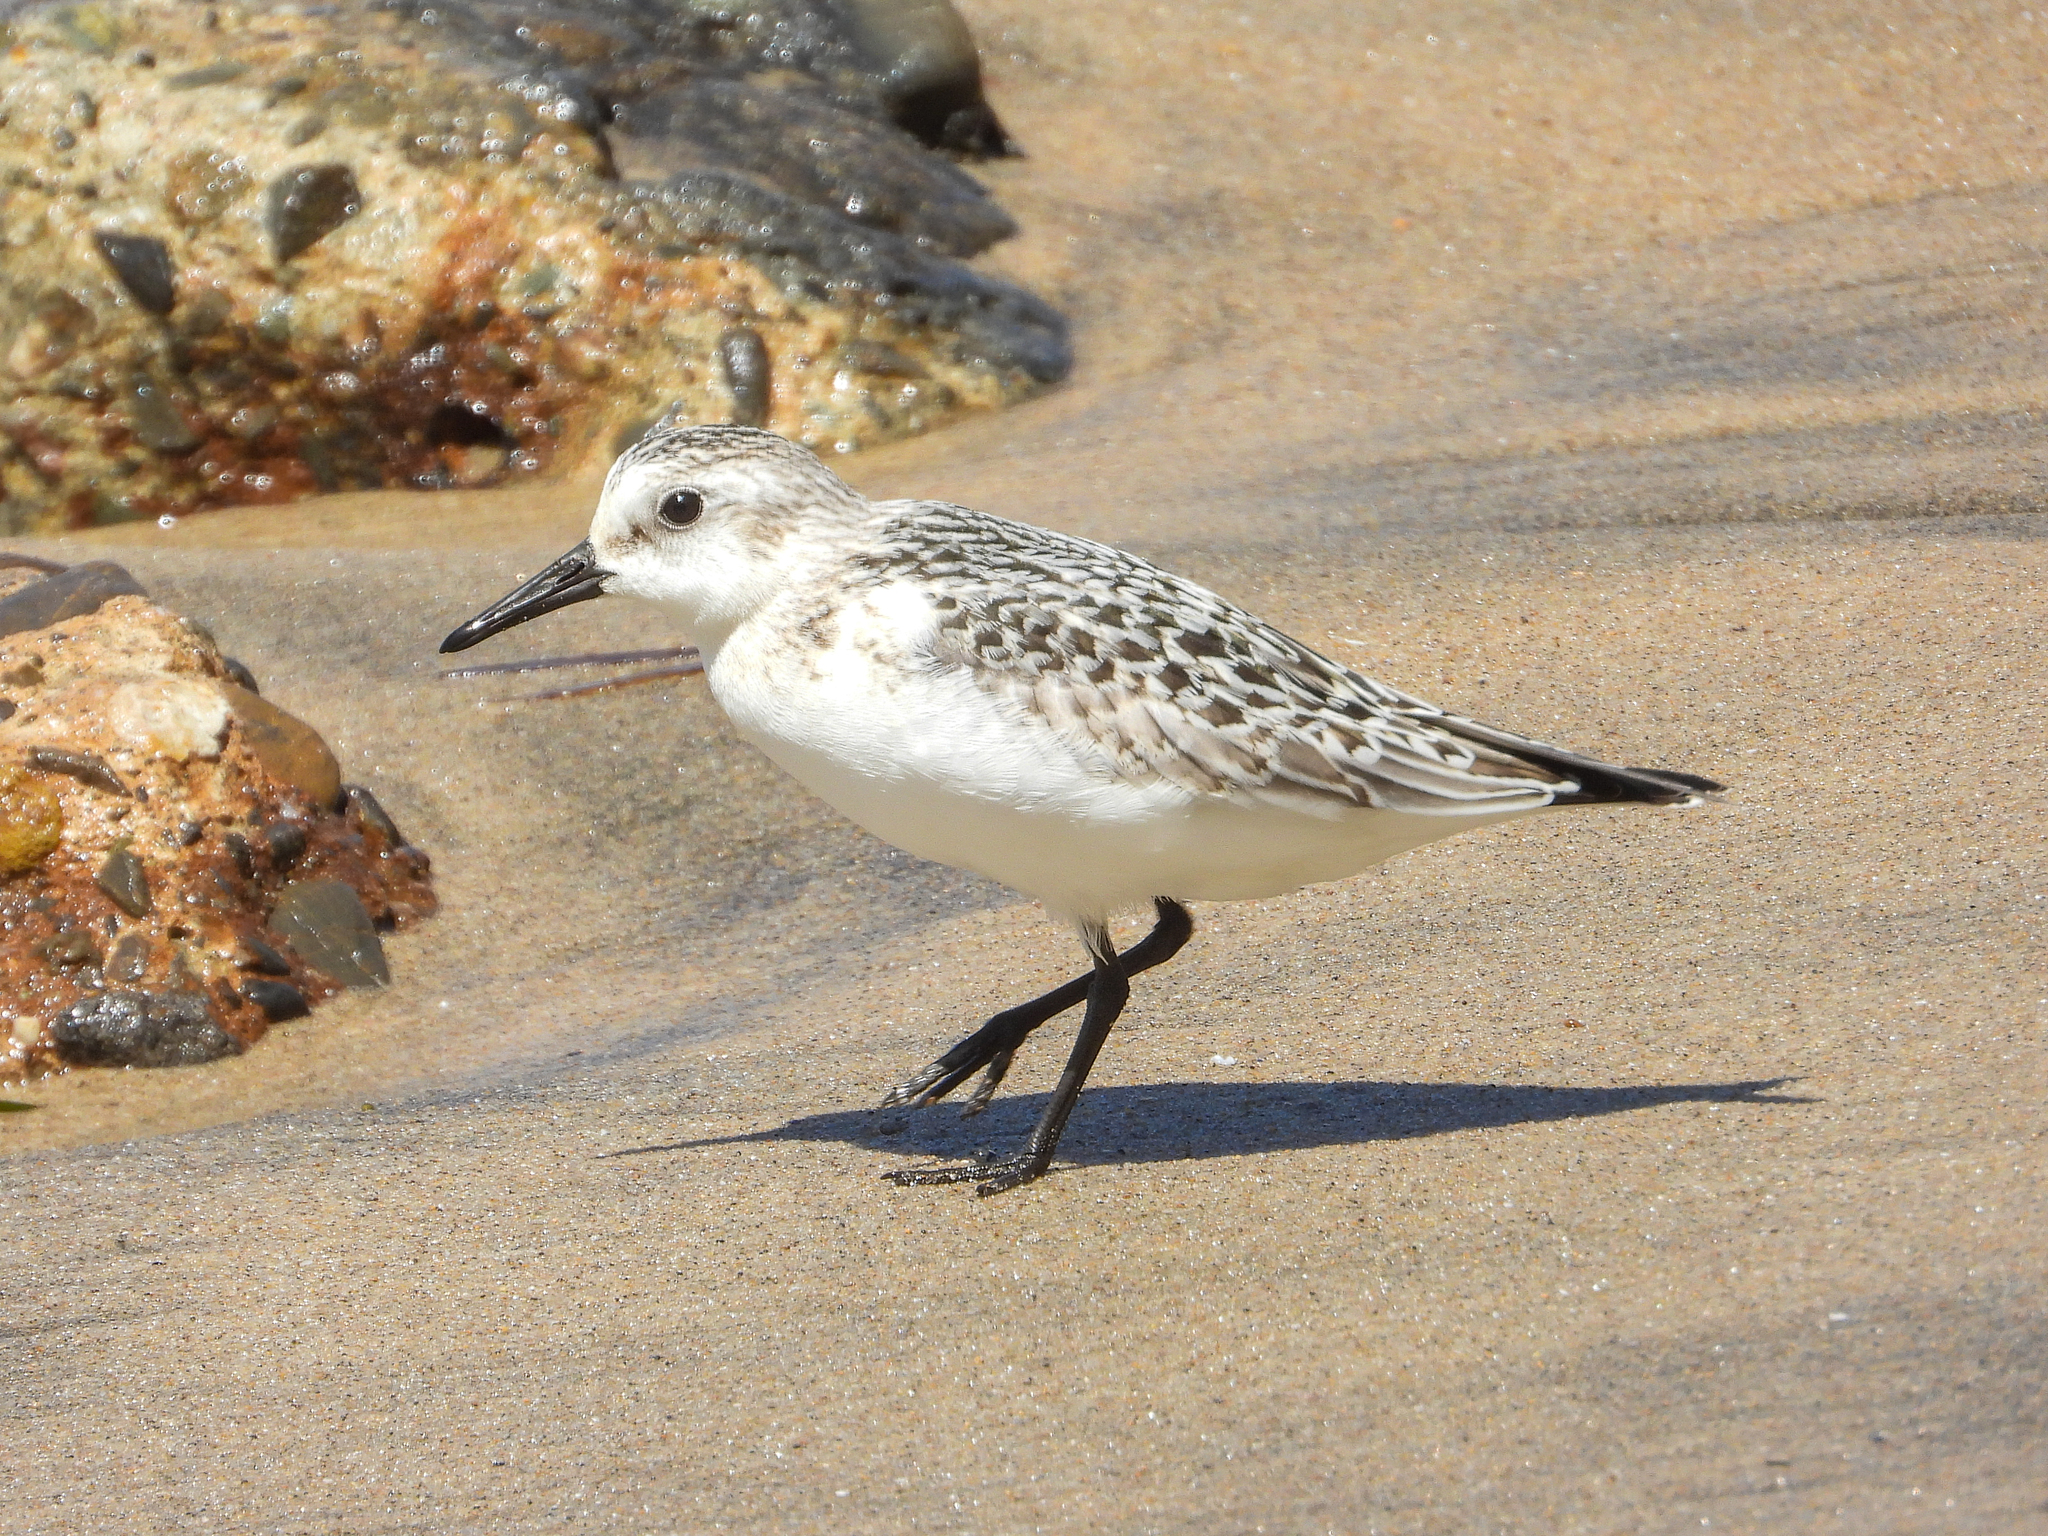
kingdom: Animalia
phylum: Chordata
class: Aves
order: Charadriiformes
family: Scolopacidae
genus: Calidris
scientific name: Calidris alba
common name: Sanderling
